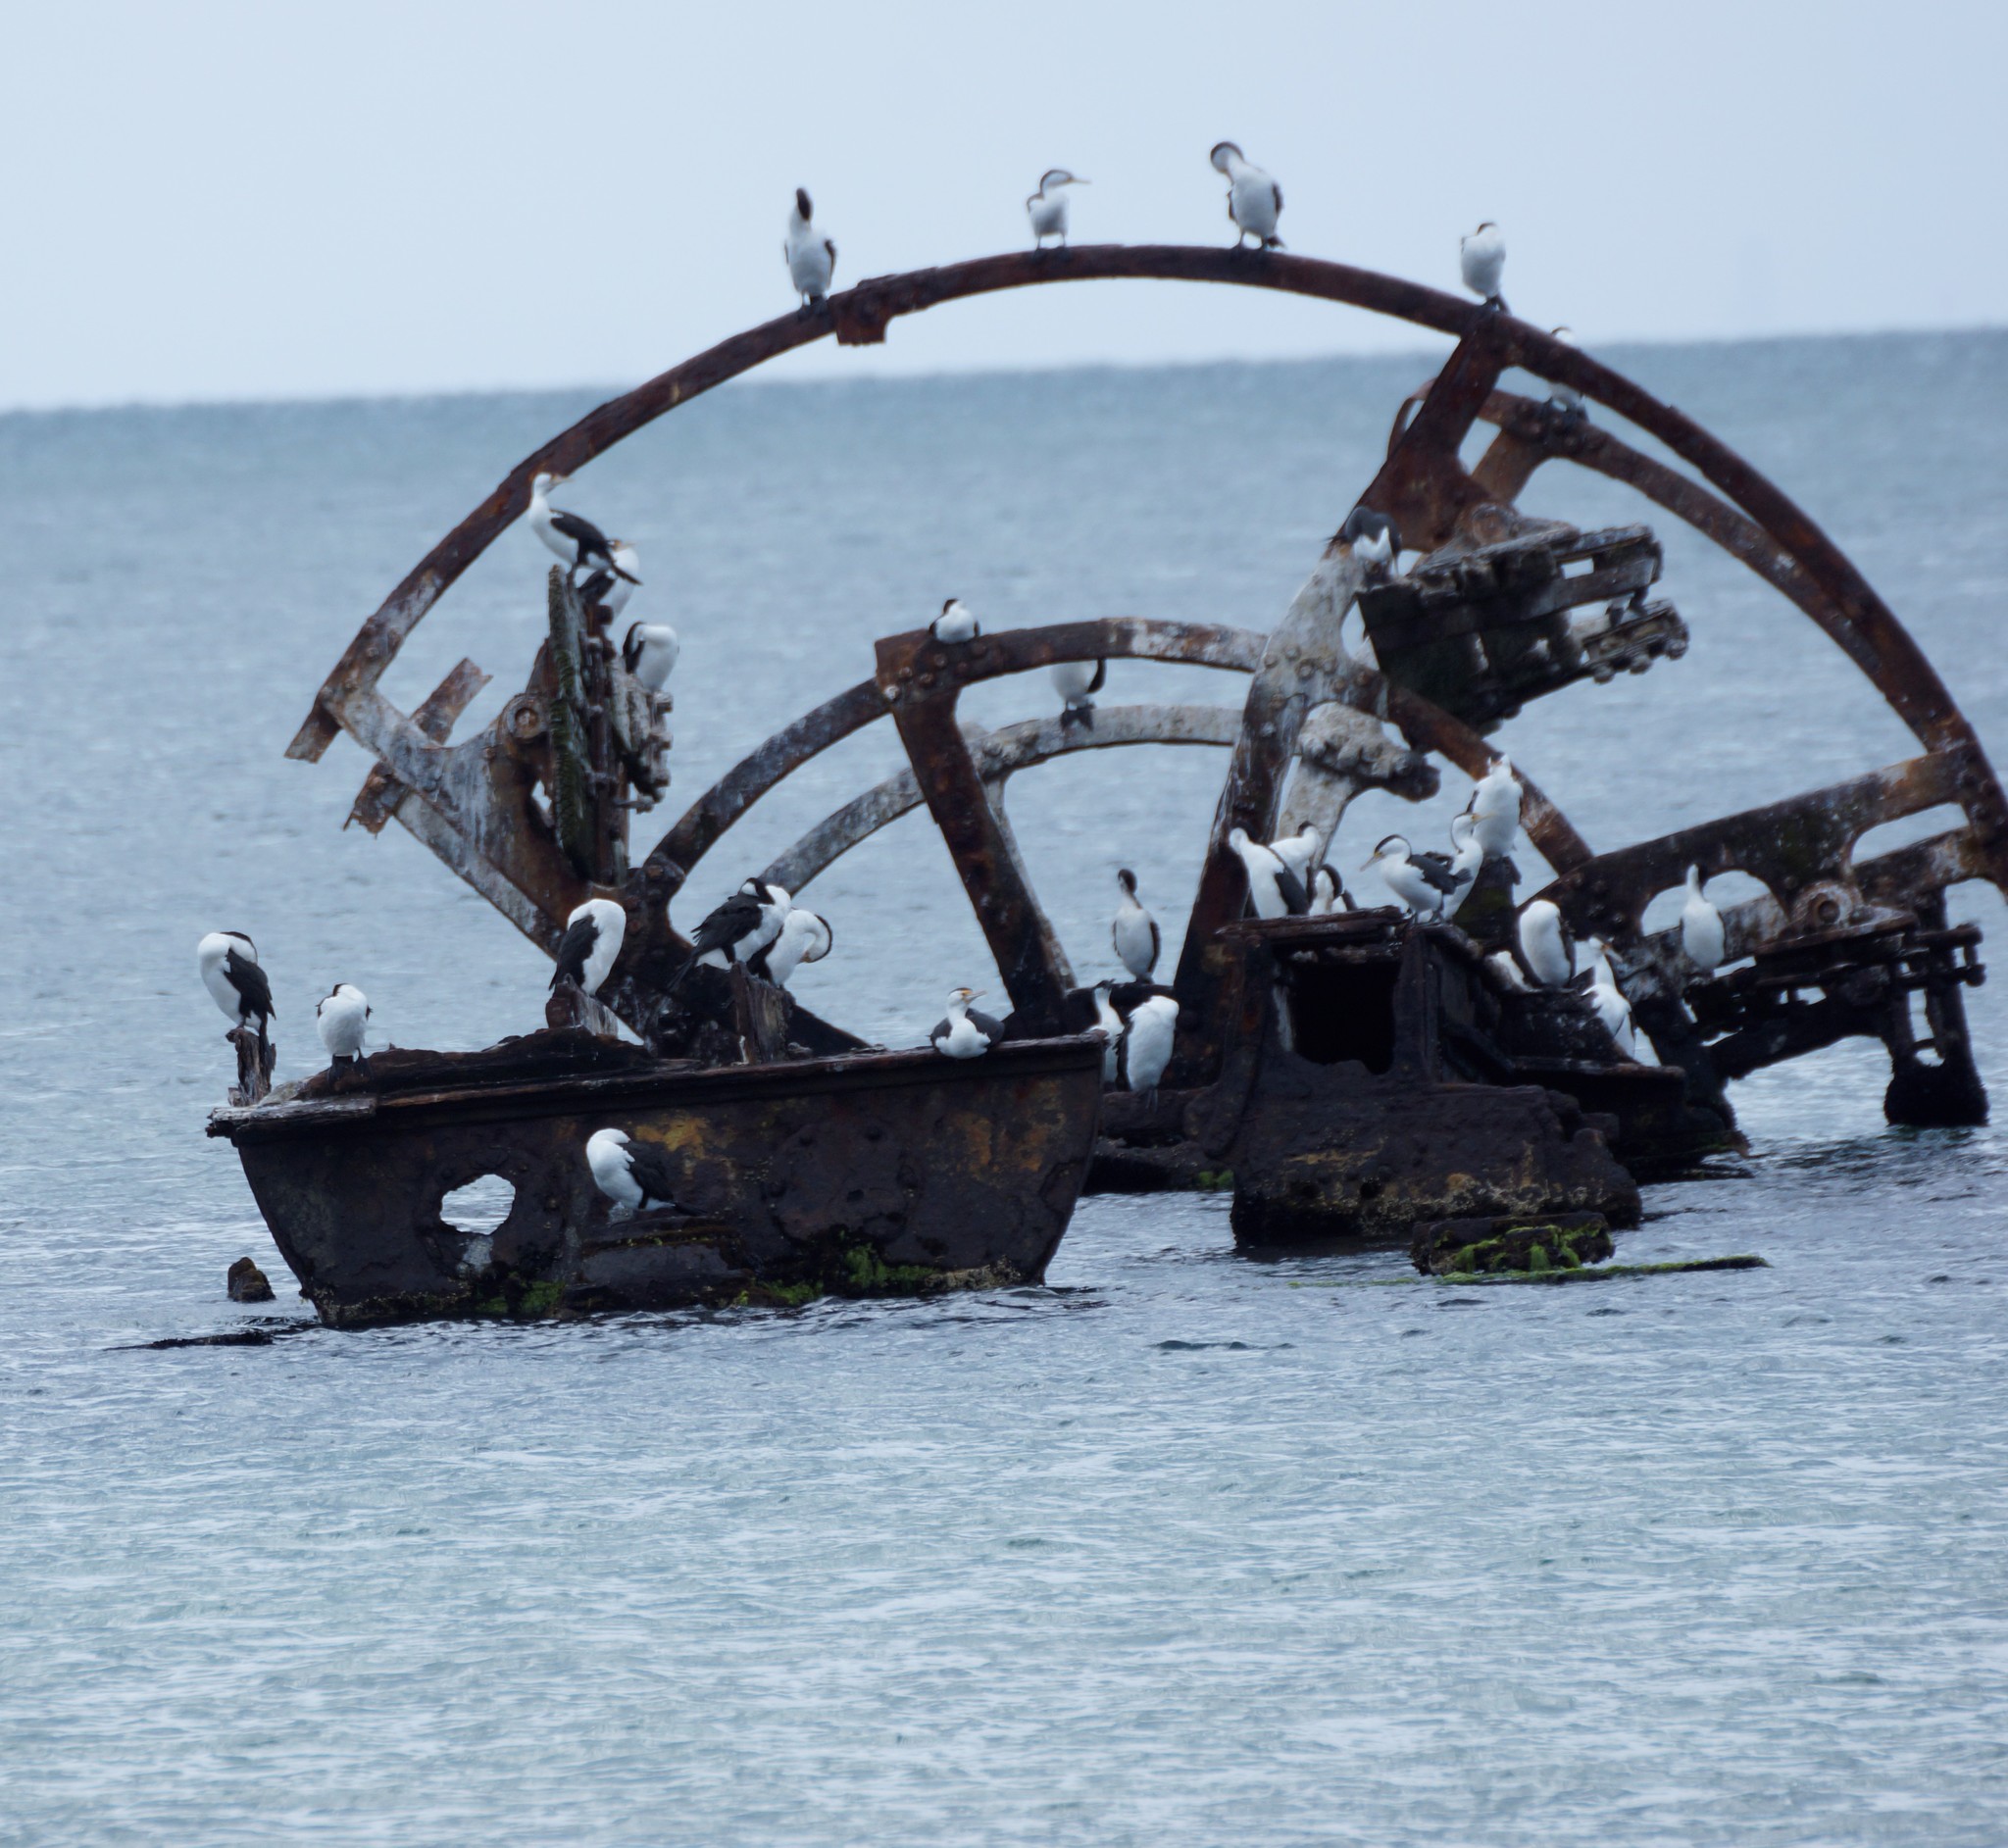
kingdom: Animalia
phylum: Chordata
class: Aves
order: Suliformes
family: Phalacrocoracidae
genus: Phalacrocorax
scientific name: Phalacrocorax varius
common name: Pied cormorant
